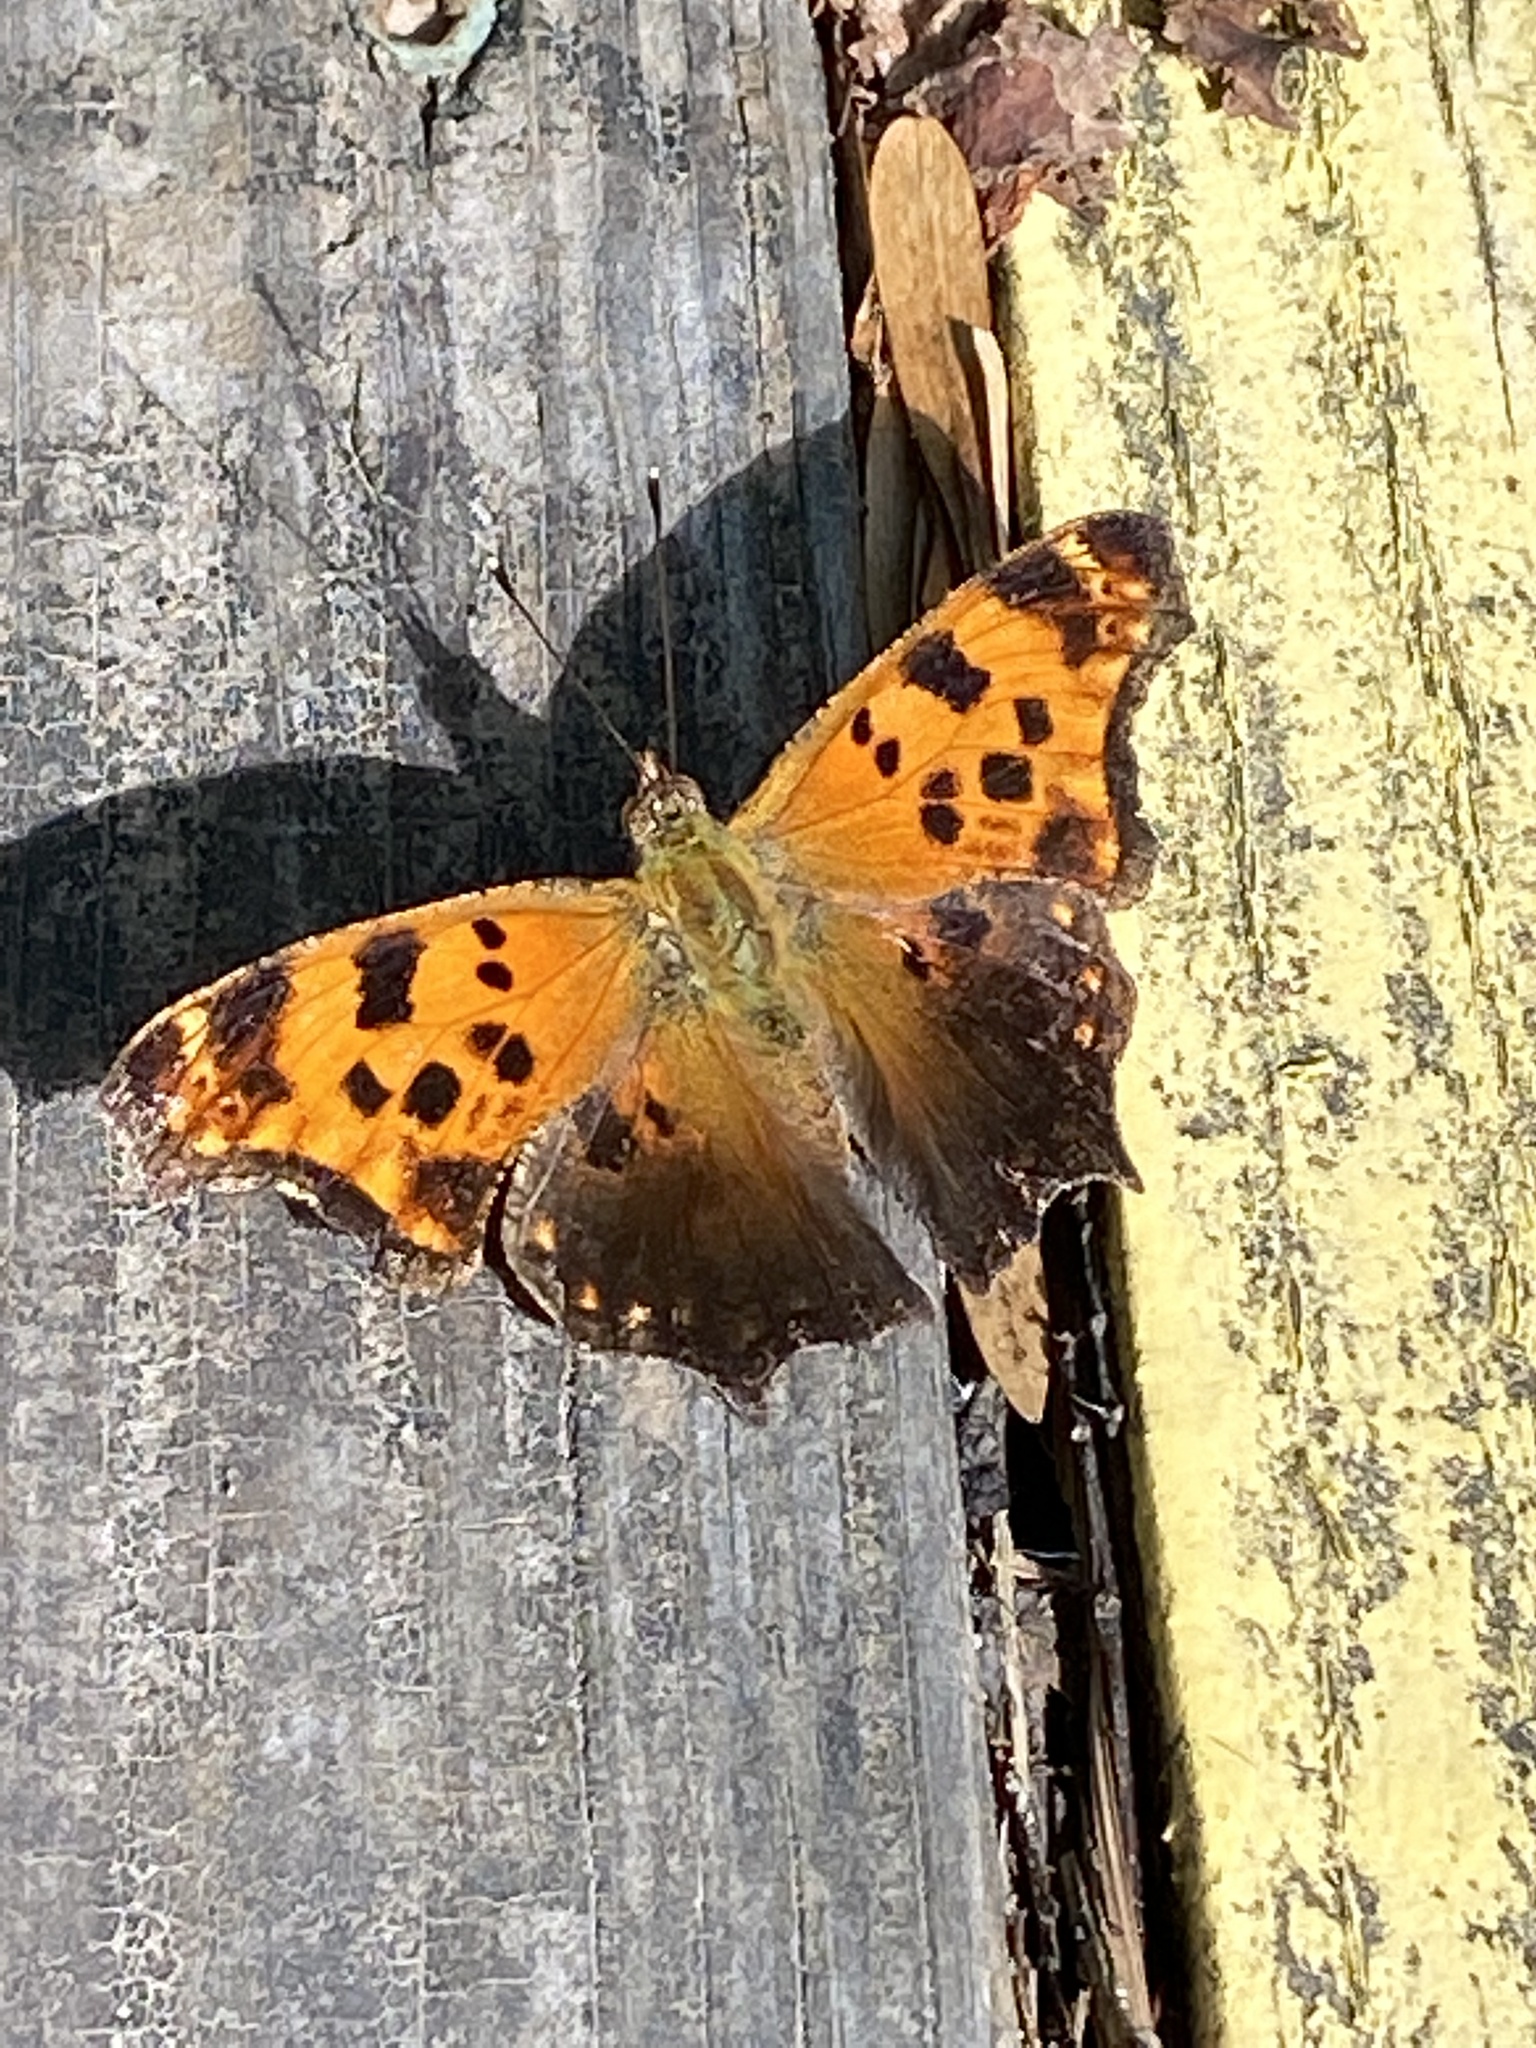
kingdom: Animalia
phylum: Arthropoda
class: Insecta
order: Lepidoptera
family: Nymphalidae
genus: Polygonia
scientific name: Polygonia comma
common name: Eastern comma
